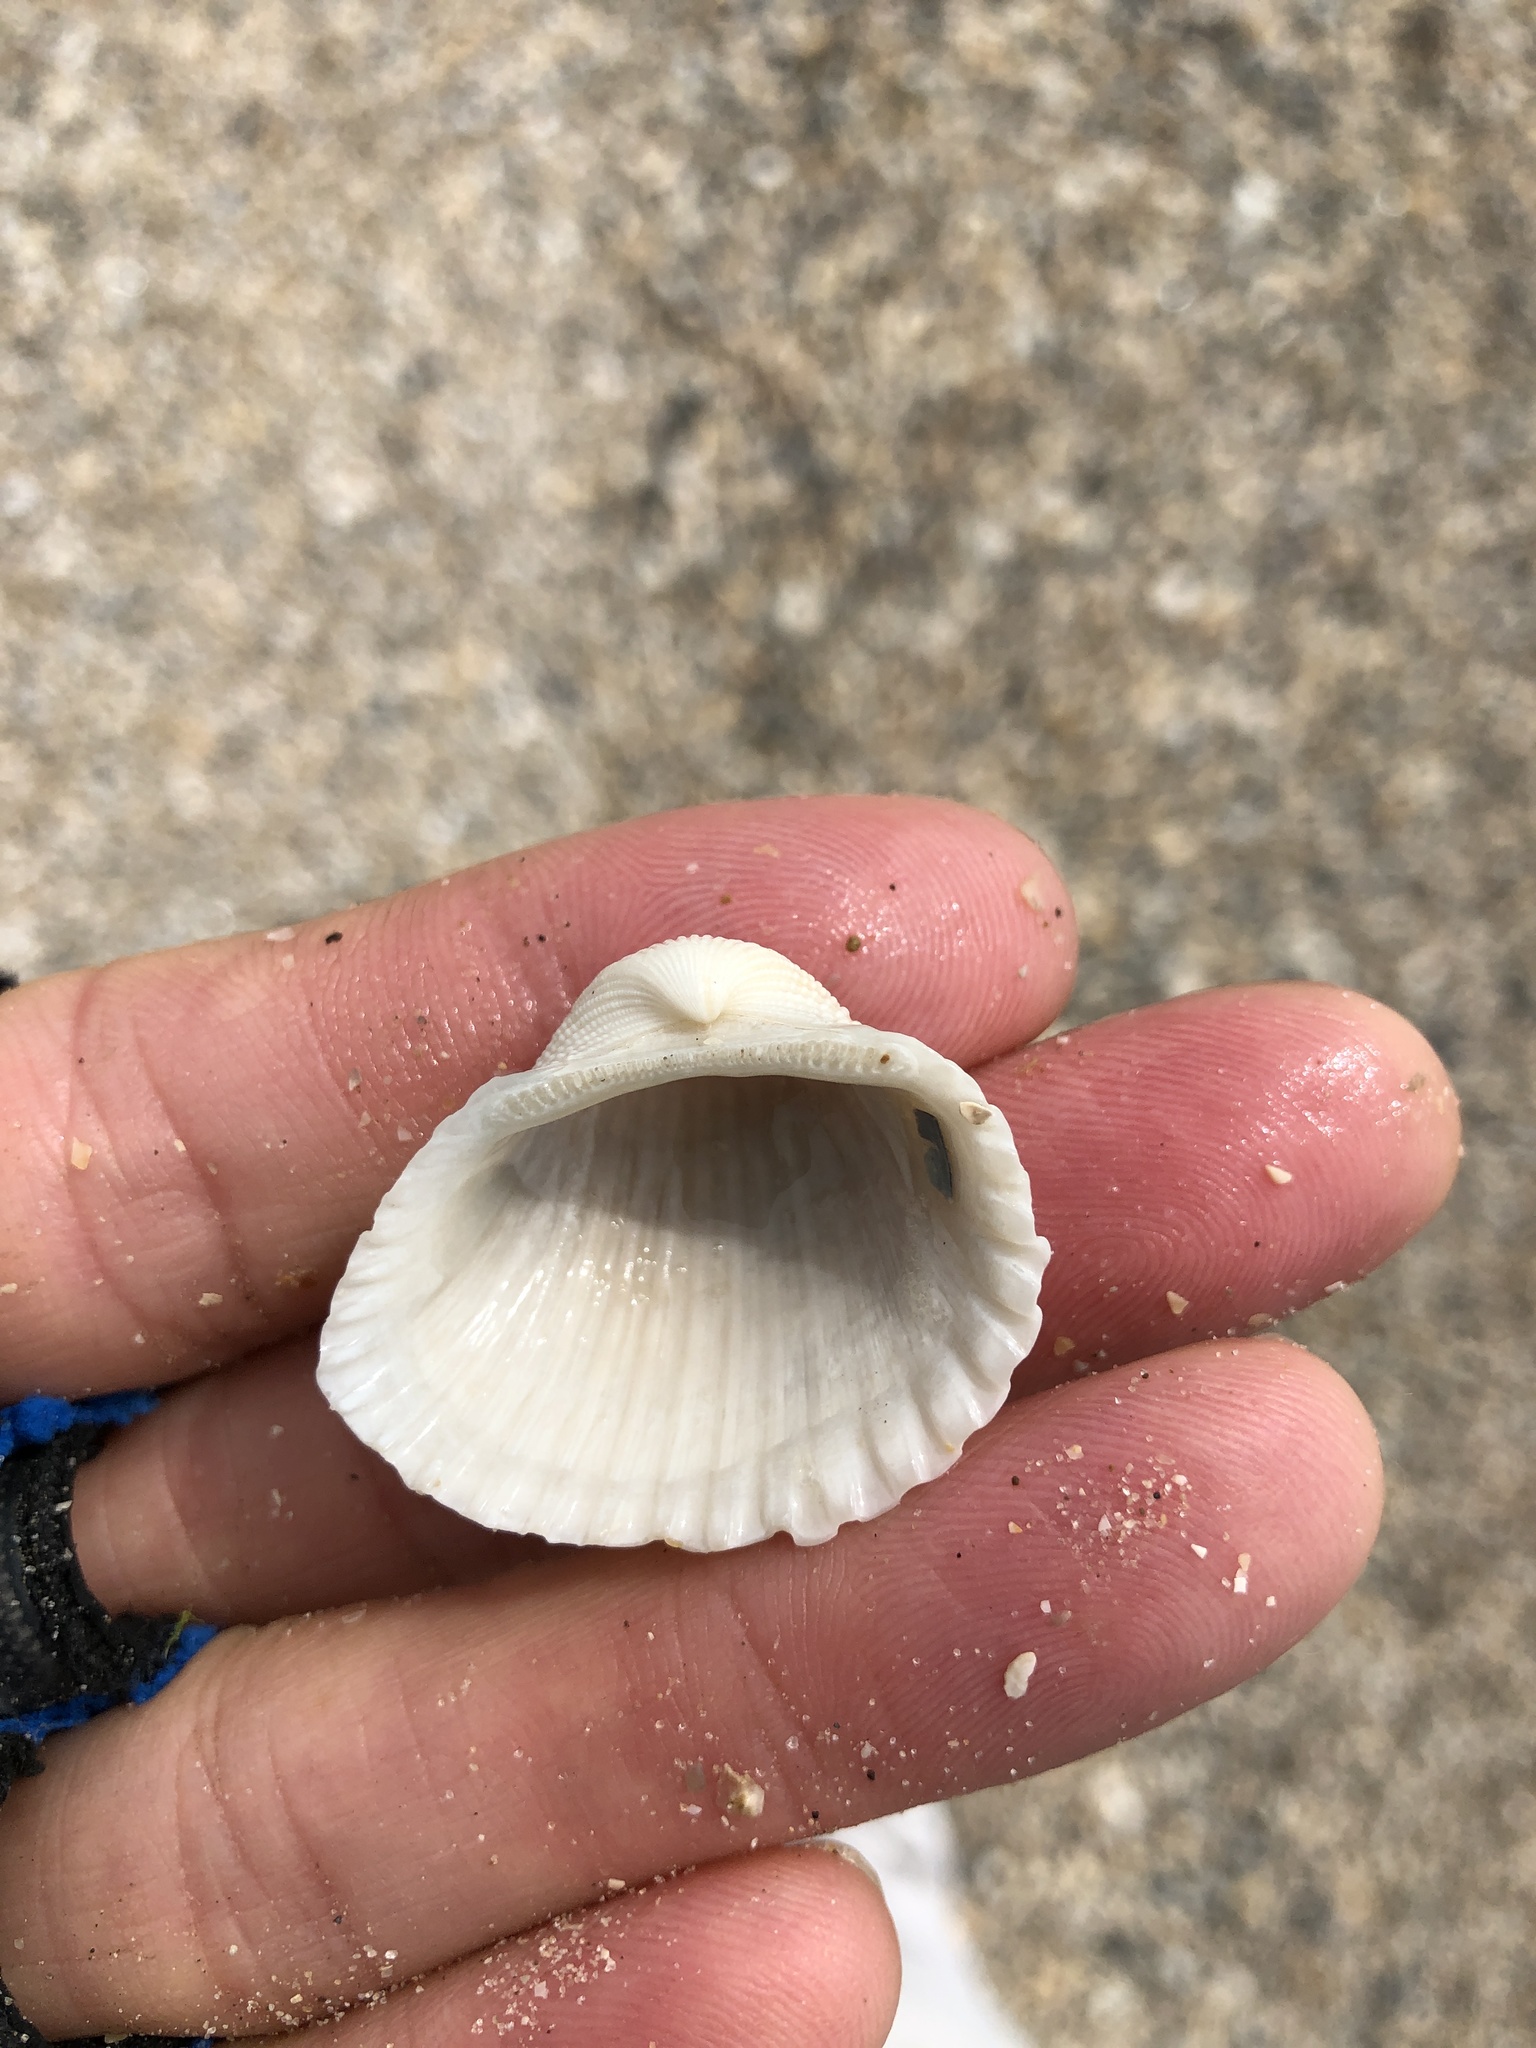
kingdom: Animalia
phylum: Mollusca
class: Bivalvia
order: Arcida
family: Arcidae
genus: Anadara
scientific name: Anadara brasiliana
